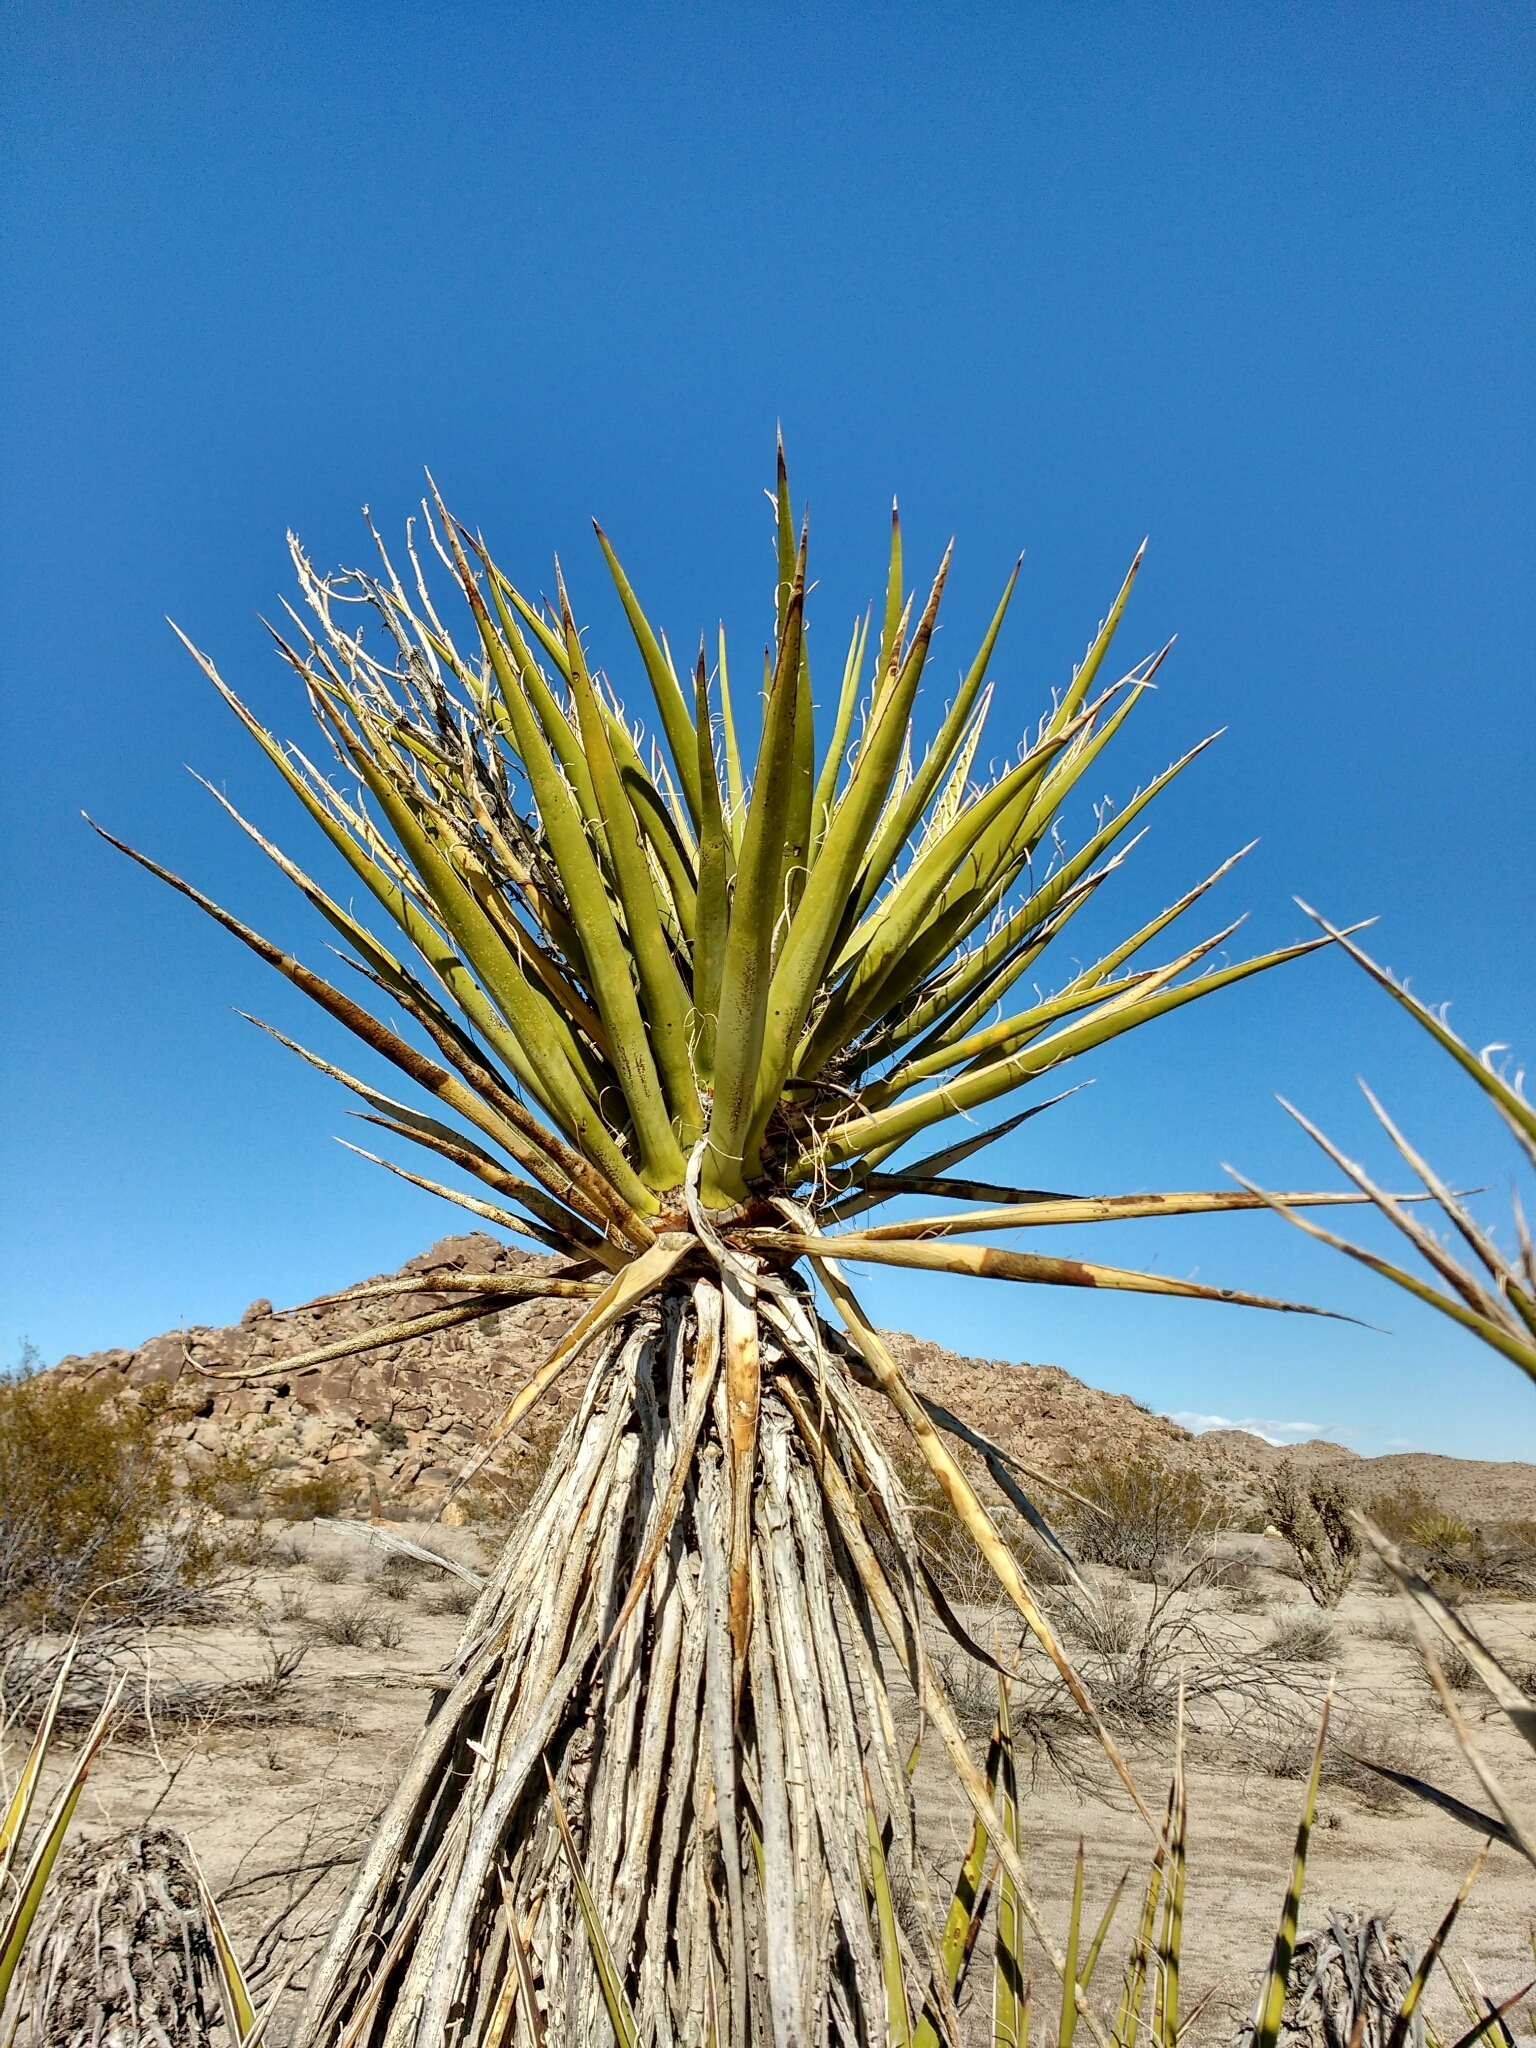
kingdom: Plantae
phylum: Tracheophyta
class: Liliopsida
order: Asparagales
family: Asparagaceae
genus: Yucca
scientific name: Yucca schidigera
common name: Mojave yucca
